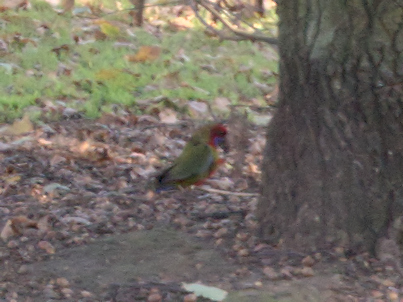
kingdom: Animalia
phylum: Chordata
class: Aves
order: Psittaciformes
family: Psittacidae
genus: Platycercus
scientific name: Platycercus elegans
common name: Crimson rosella
